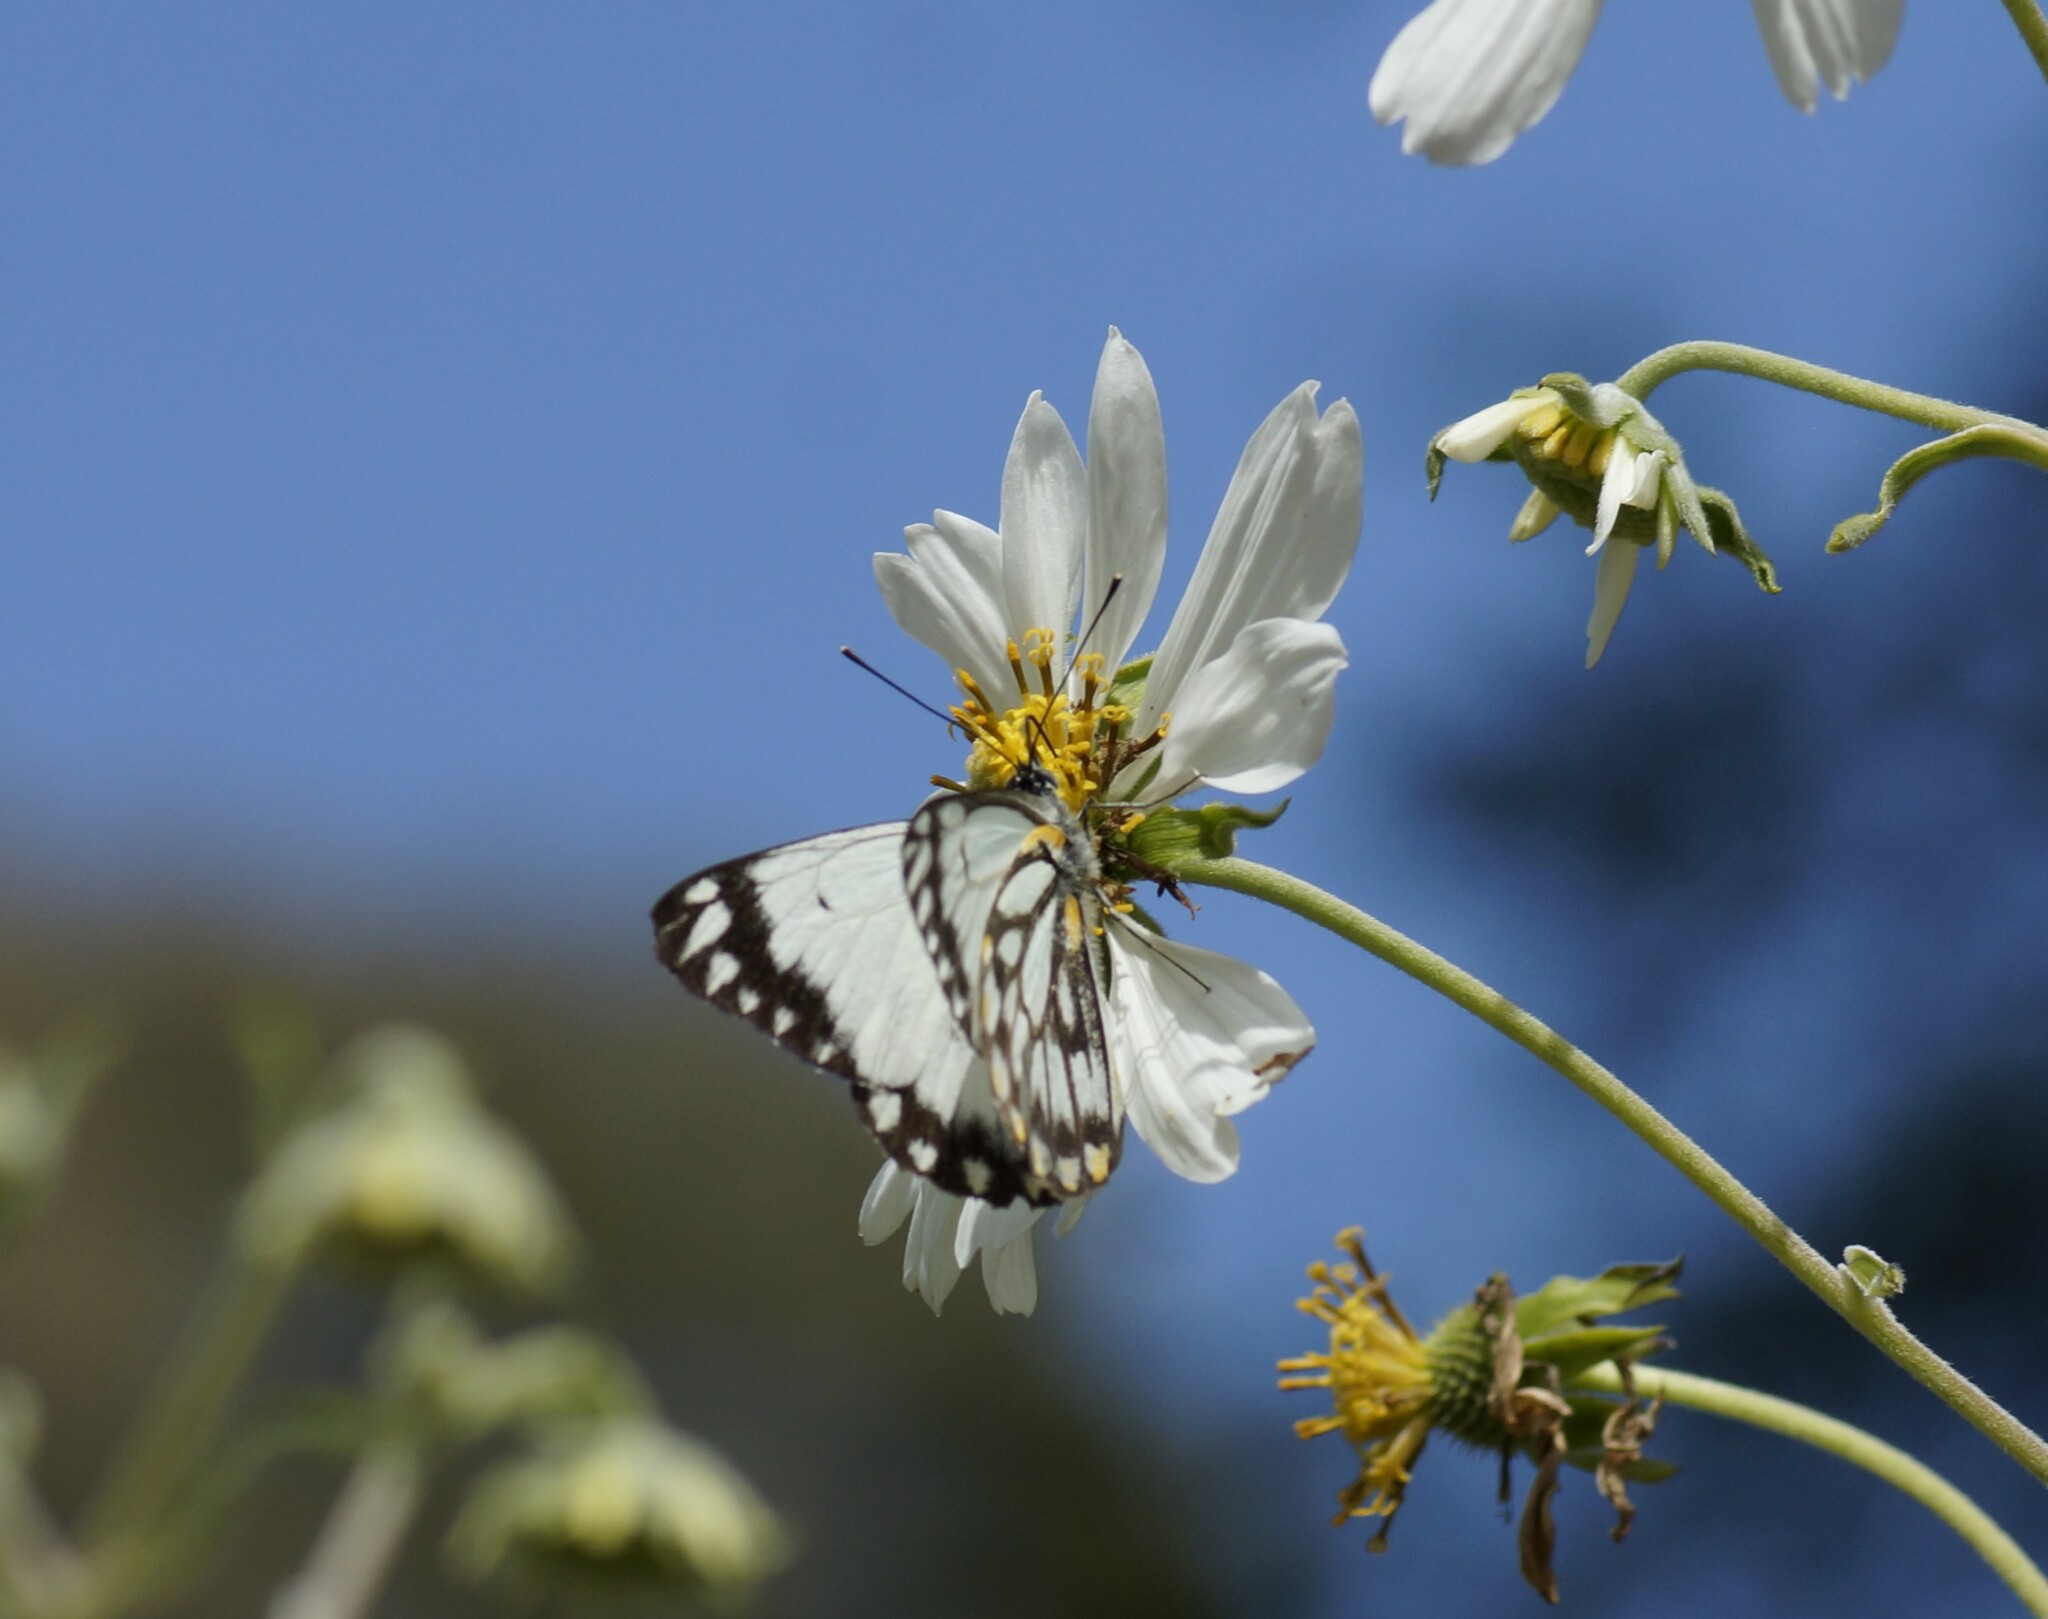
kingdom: Animalia
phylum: Arthropoda
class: Insecta
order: Lepidoptera
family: Pieridae
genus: Belenois
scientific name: Belenois java
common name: Caper white
